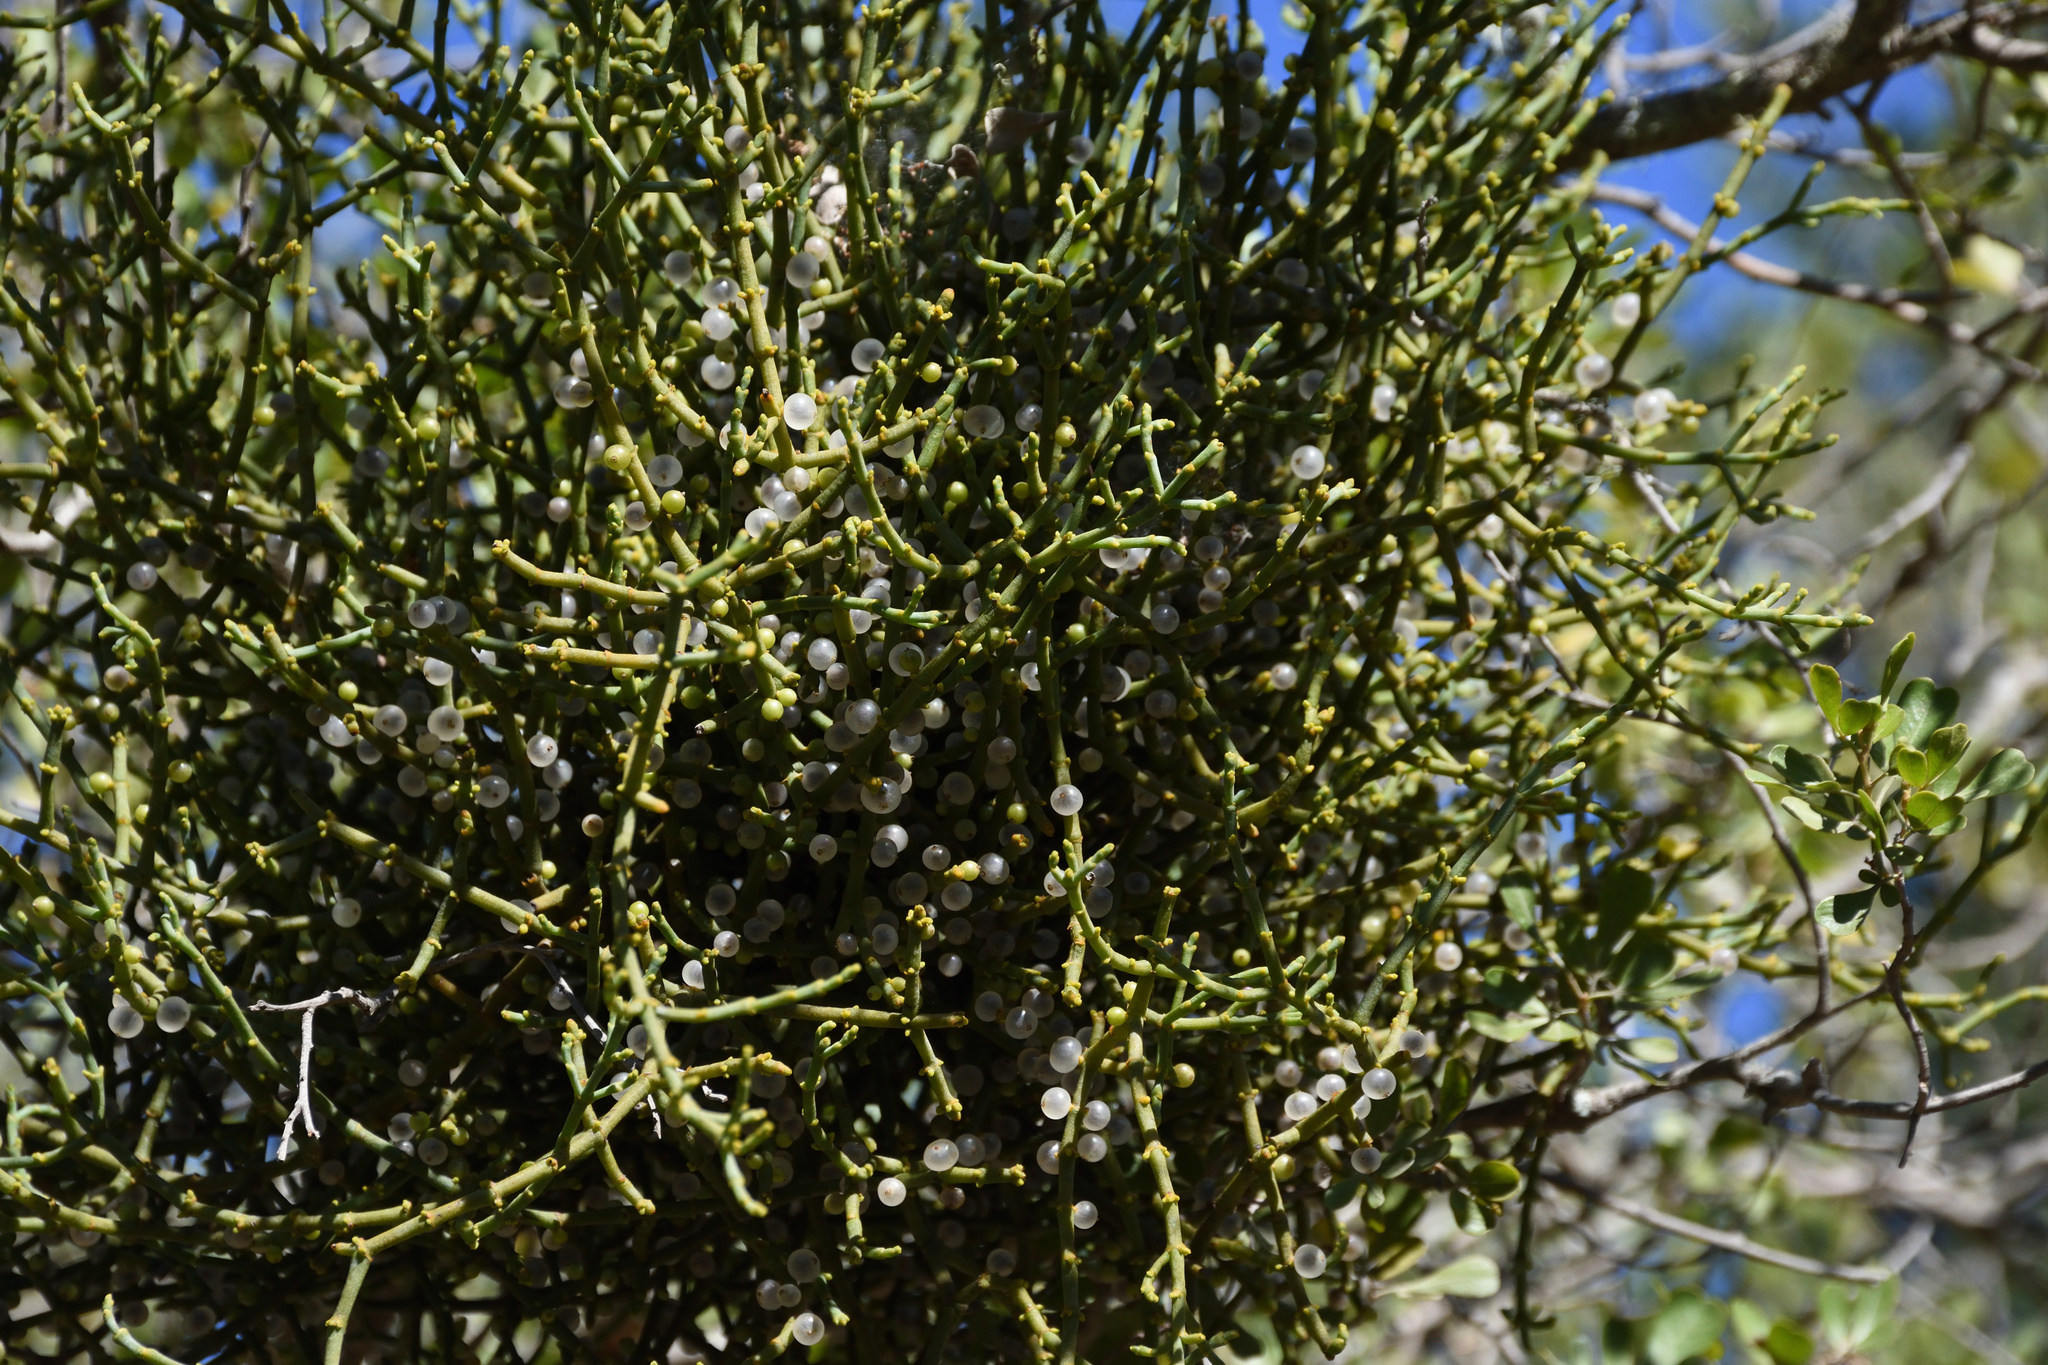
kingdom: Plantae
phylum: Tracheophyta
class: Magnoliopsida
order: Santalales
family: Viscaceae
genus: Viscum
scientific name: Viscum capense
